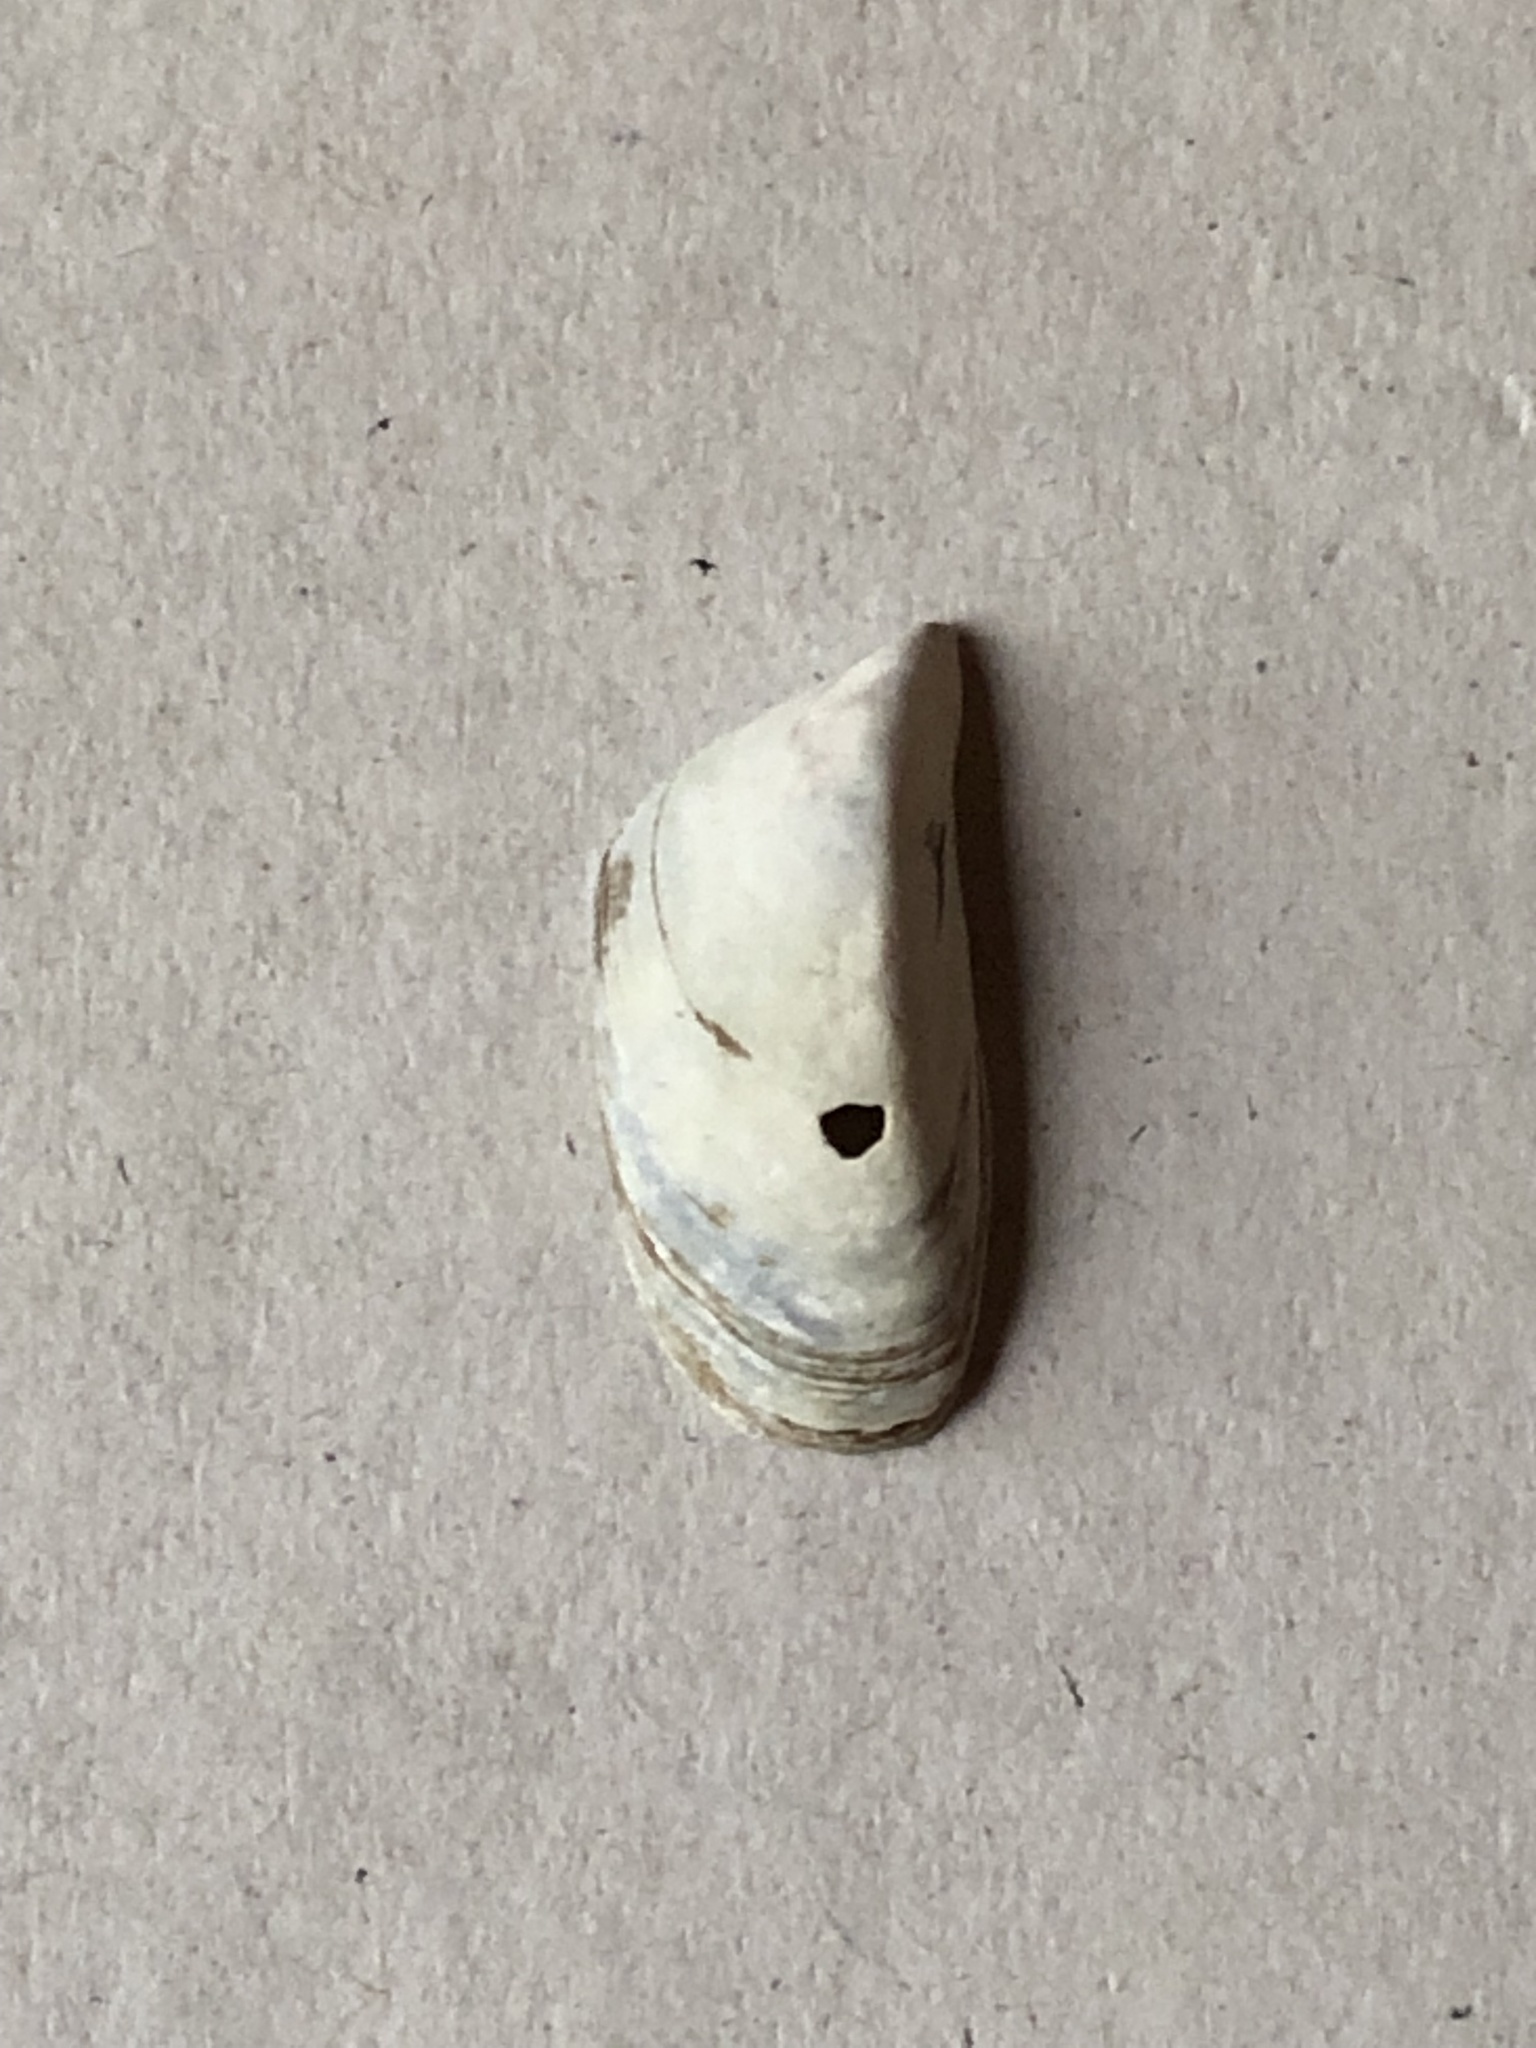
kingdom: Animalia
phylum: Mollusca
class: Bivalvia
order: Myida
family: Dreissenidae
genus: Dreissena
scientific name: Dreissena polymorpha
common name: Zebra mussel
